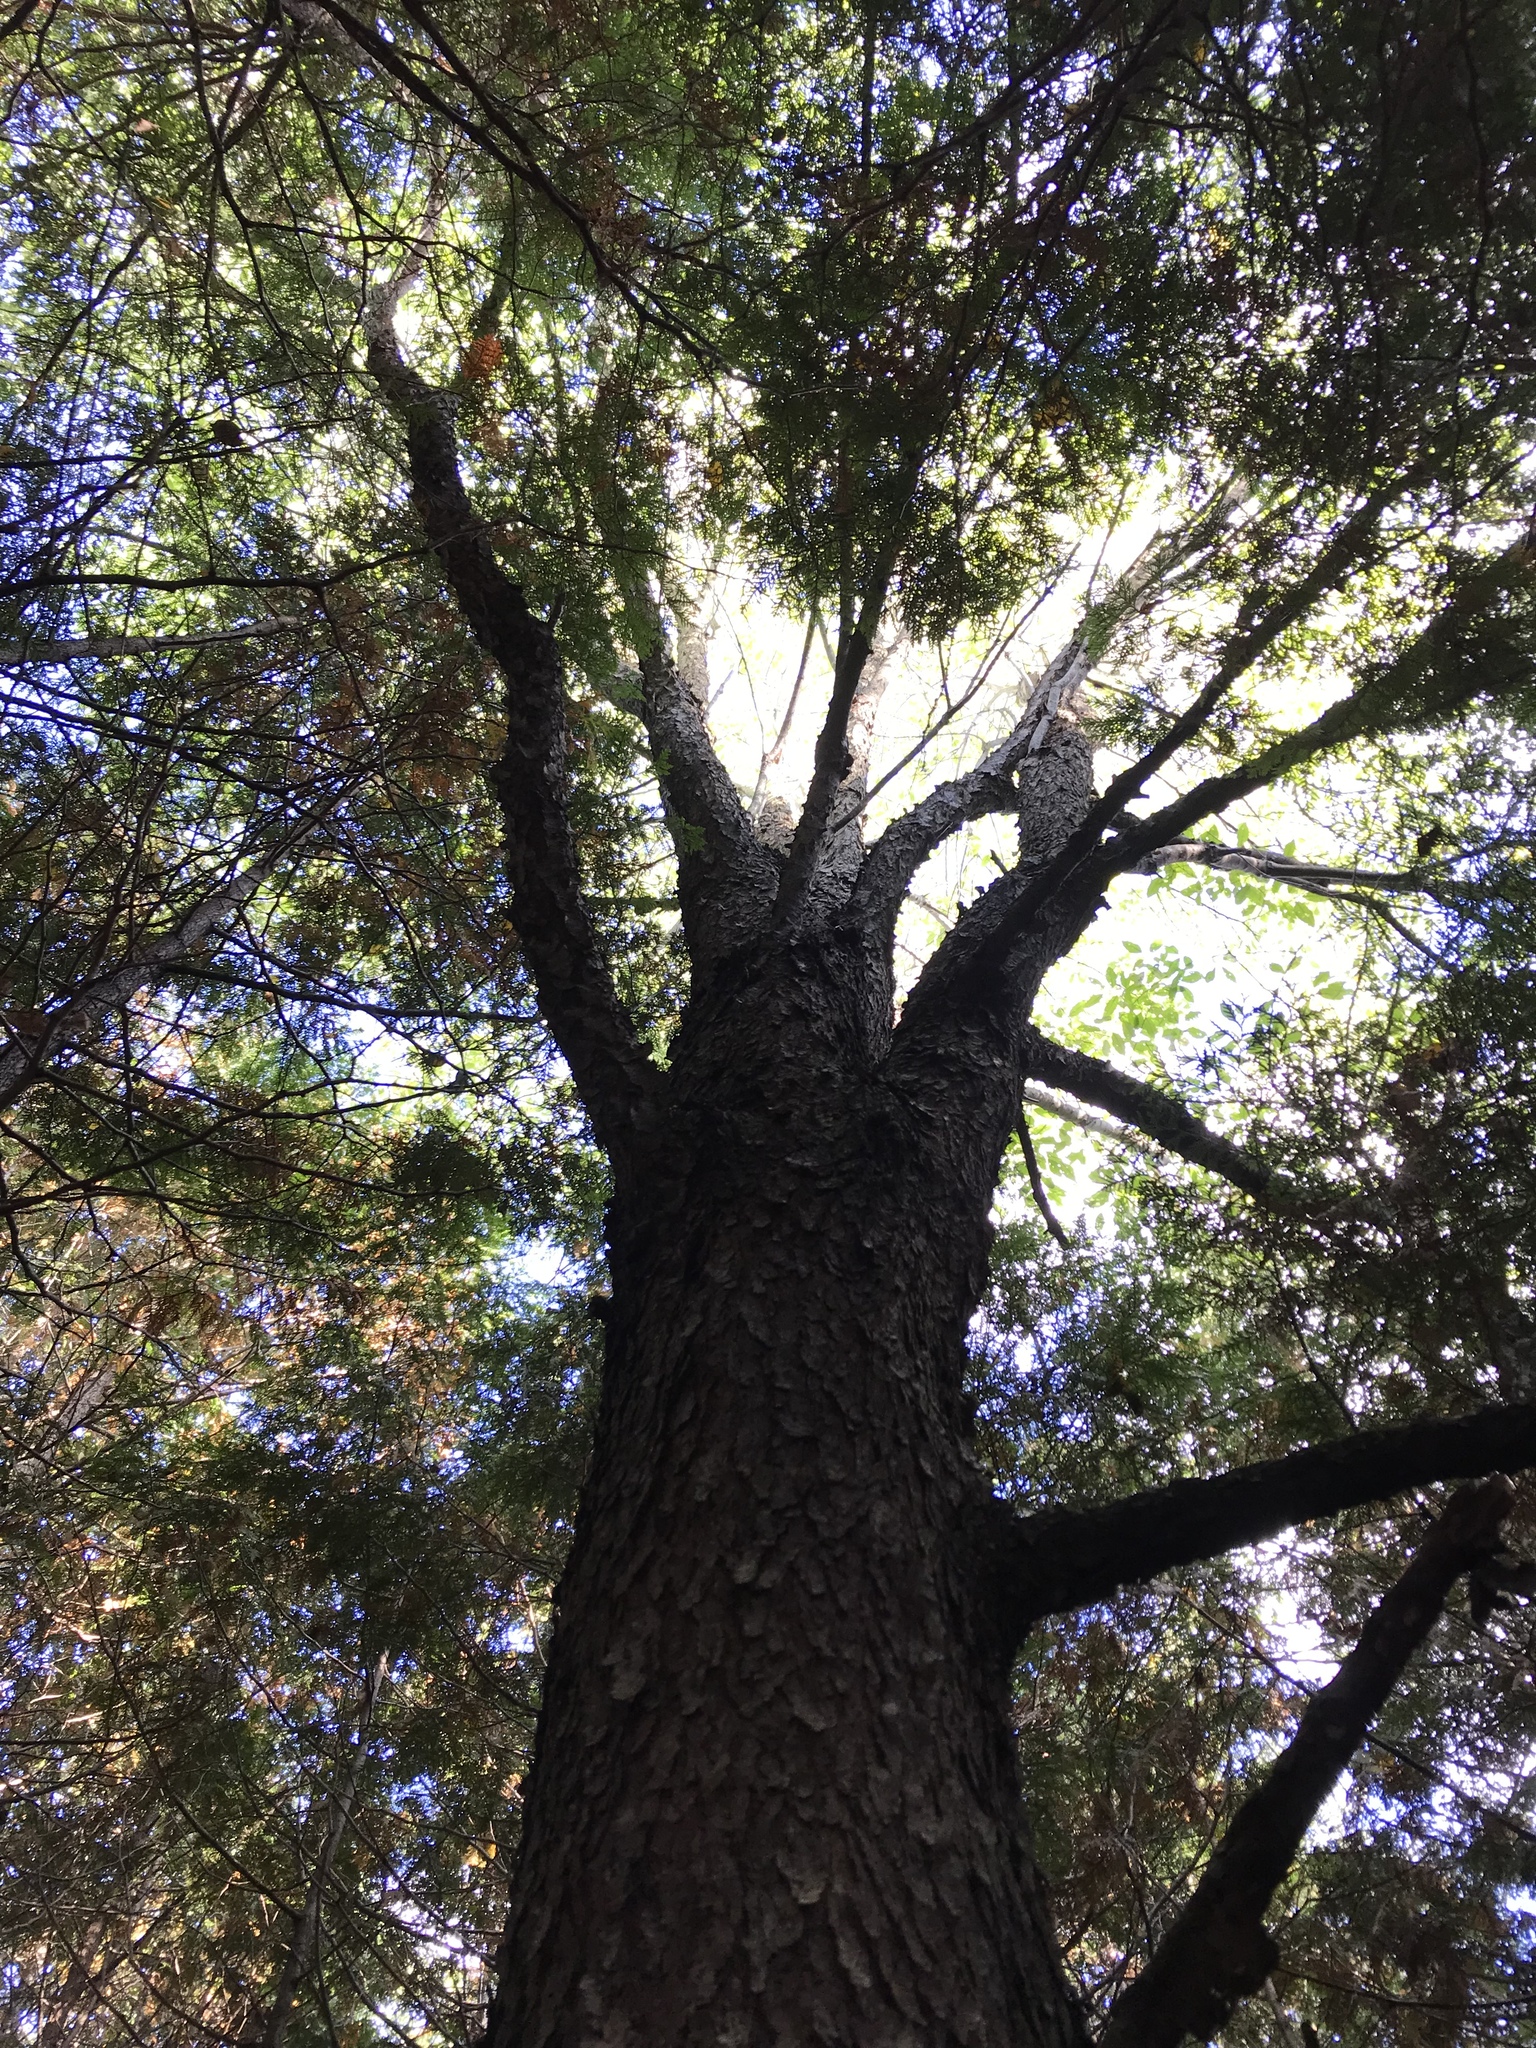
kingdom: Plantae
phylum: Tracheophyta
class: Magnoliopsida
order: Rosales
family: Rosaceae
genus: Prunus
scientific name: Prunus serotina
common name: Black cherry
